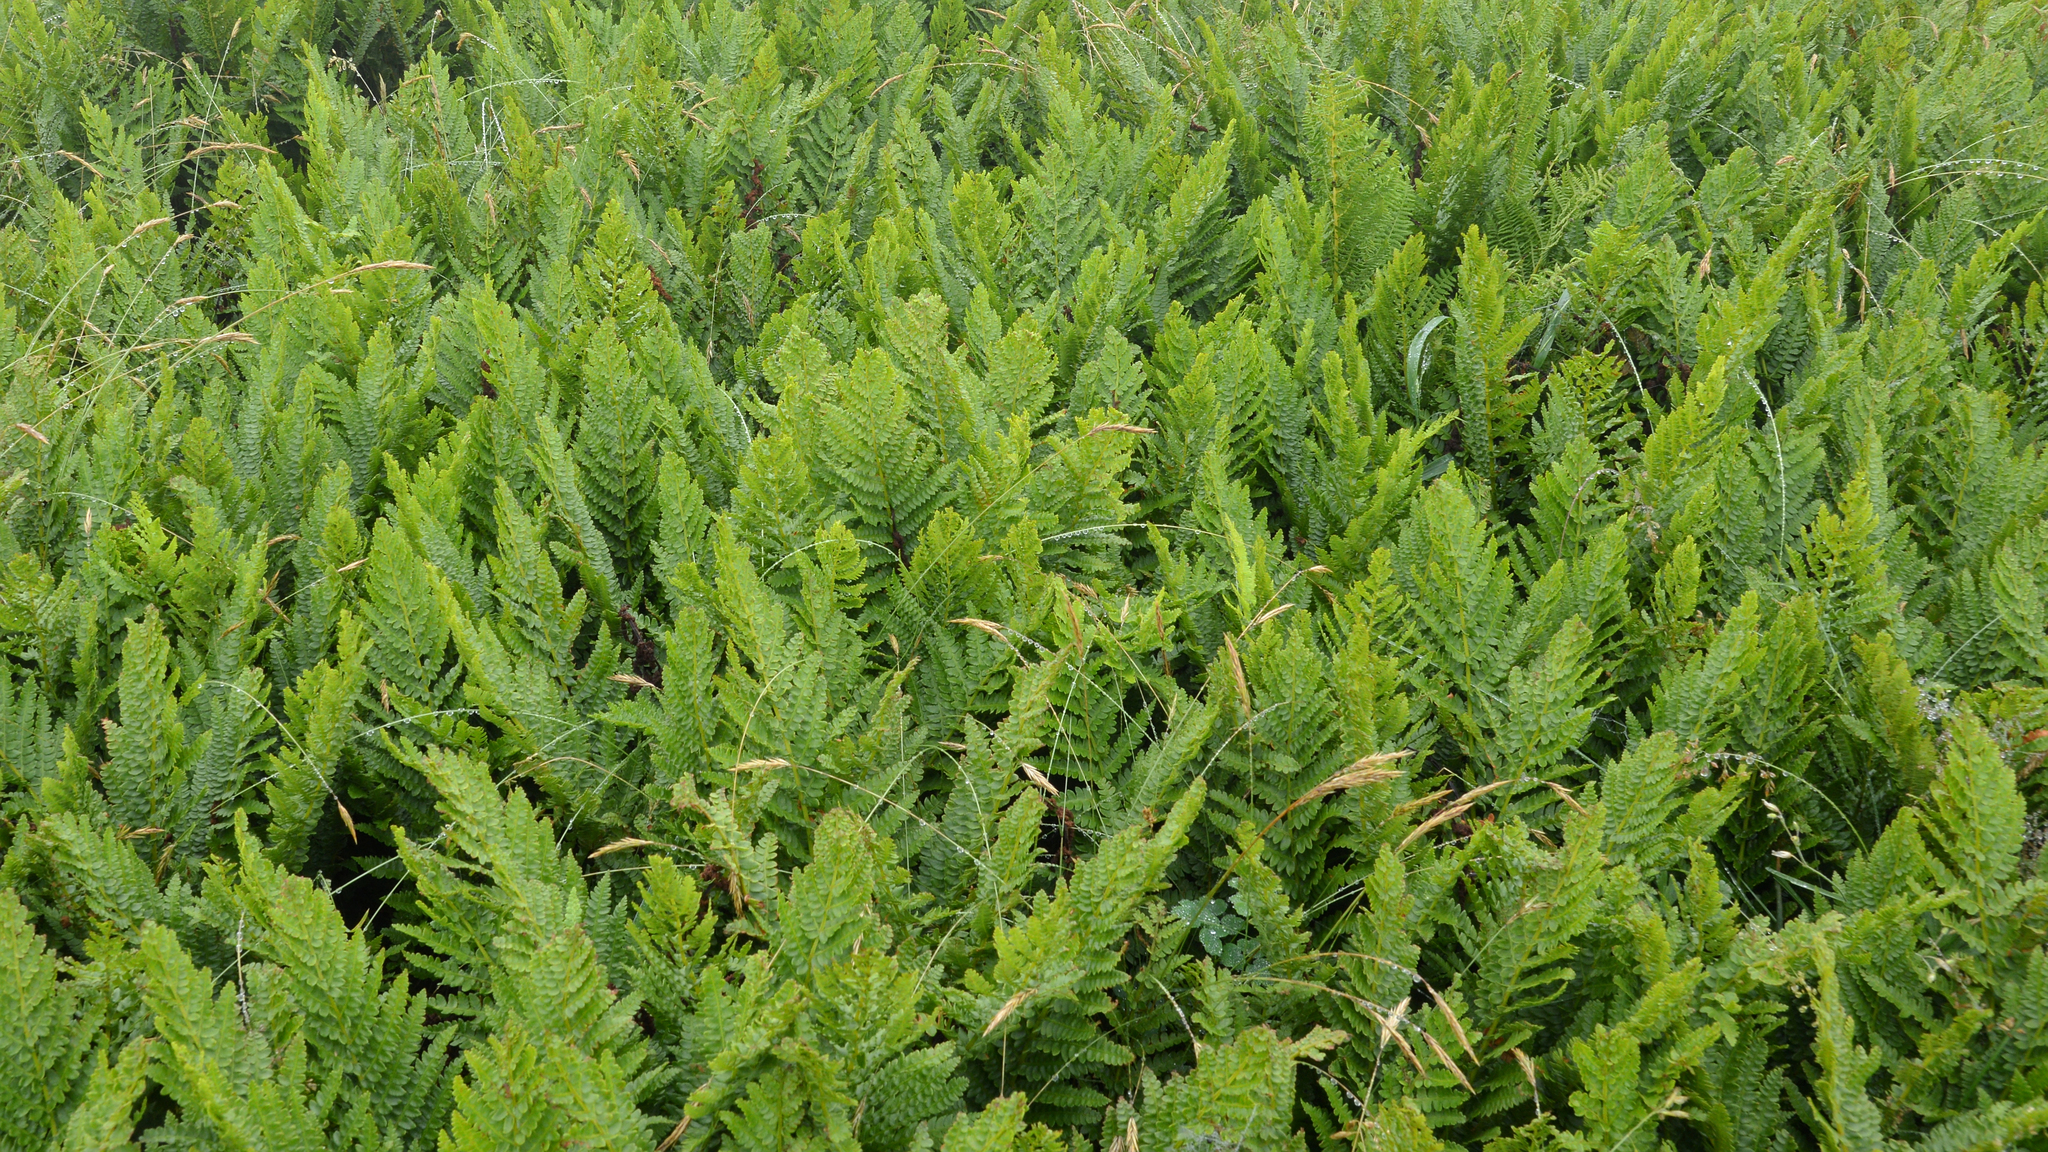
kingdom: Plantae
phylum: Tracheophyta
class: Polypodiopsida
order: Osmundales
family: Osmundaceae
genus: Osmundastrum
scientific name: Osmundastrum cinnamomeum
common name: Cinnamon fern
